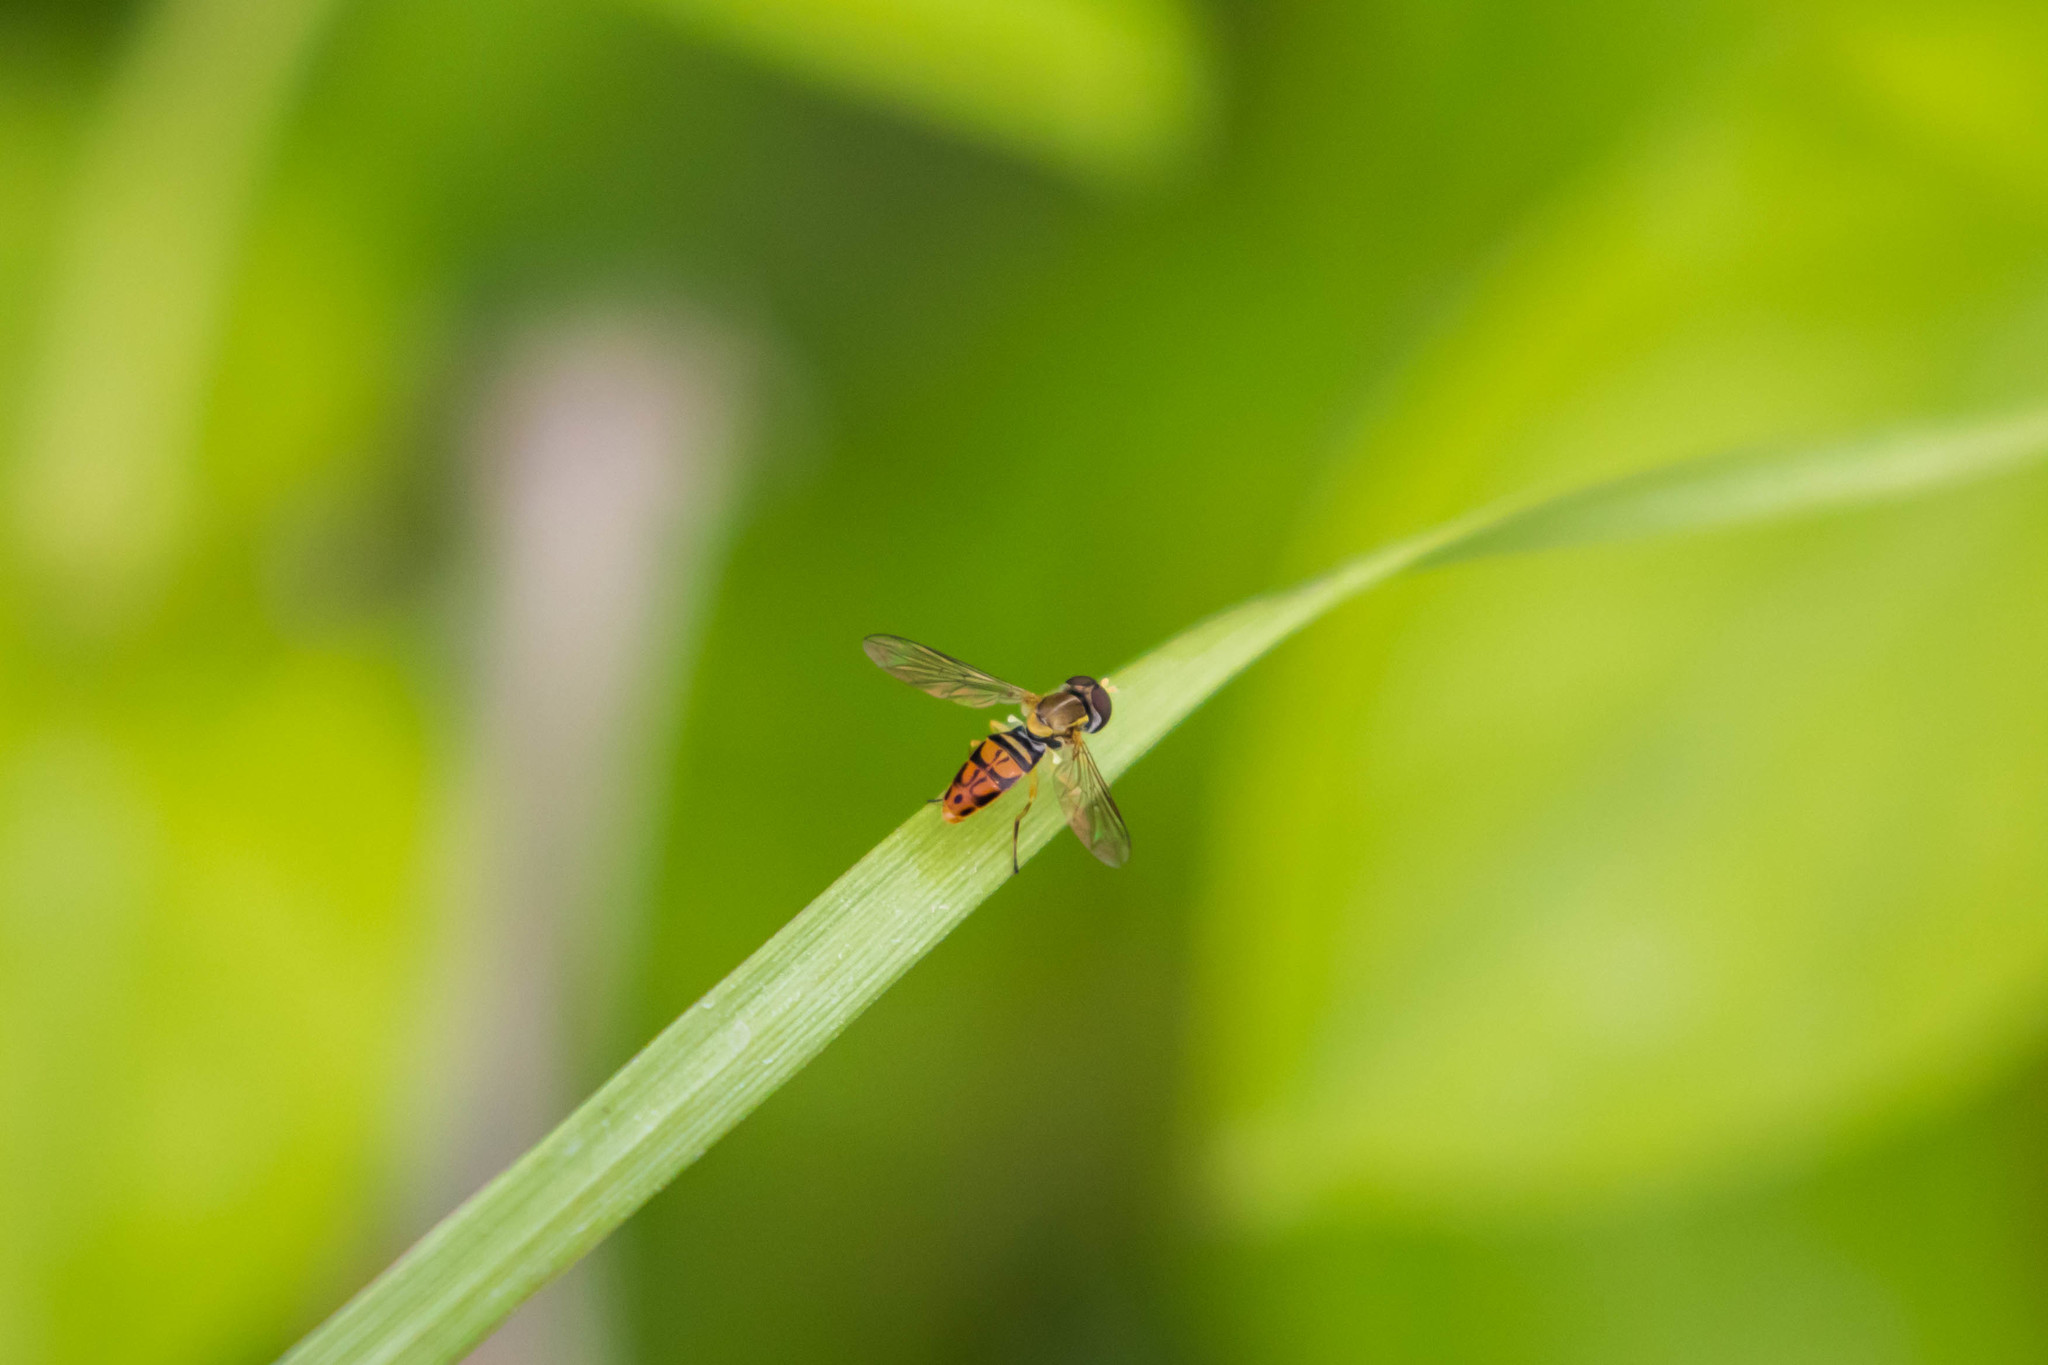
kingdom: Animalia
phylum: Arthropoda
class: Insecta
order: Diptera
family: Syrphidae
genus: Toxomerus
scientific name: Toxomerus marginatus
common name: Syrphid fly
